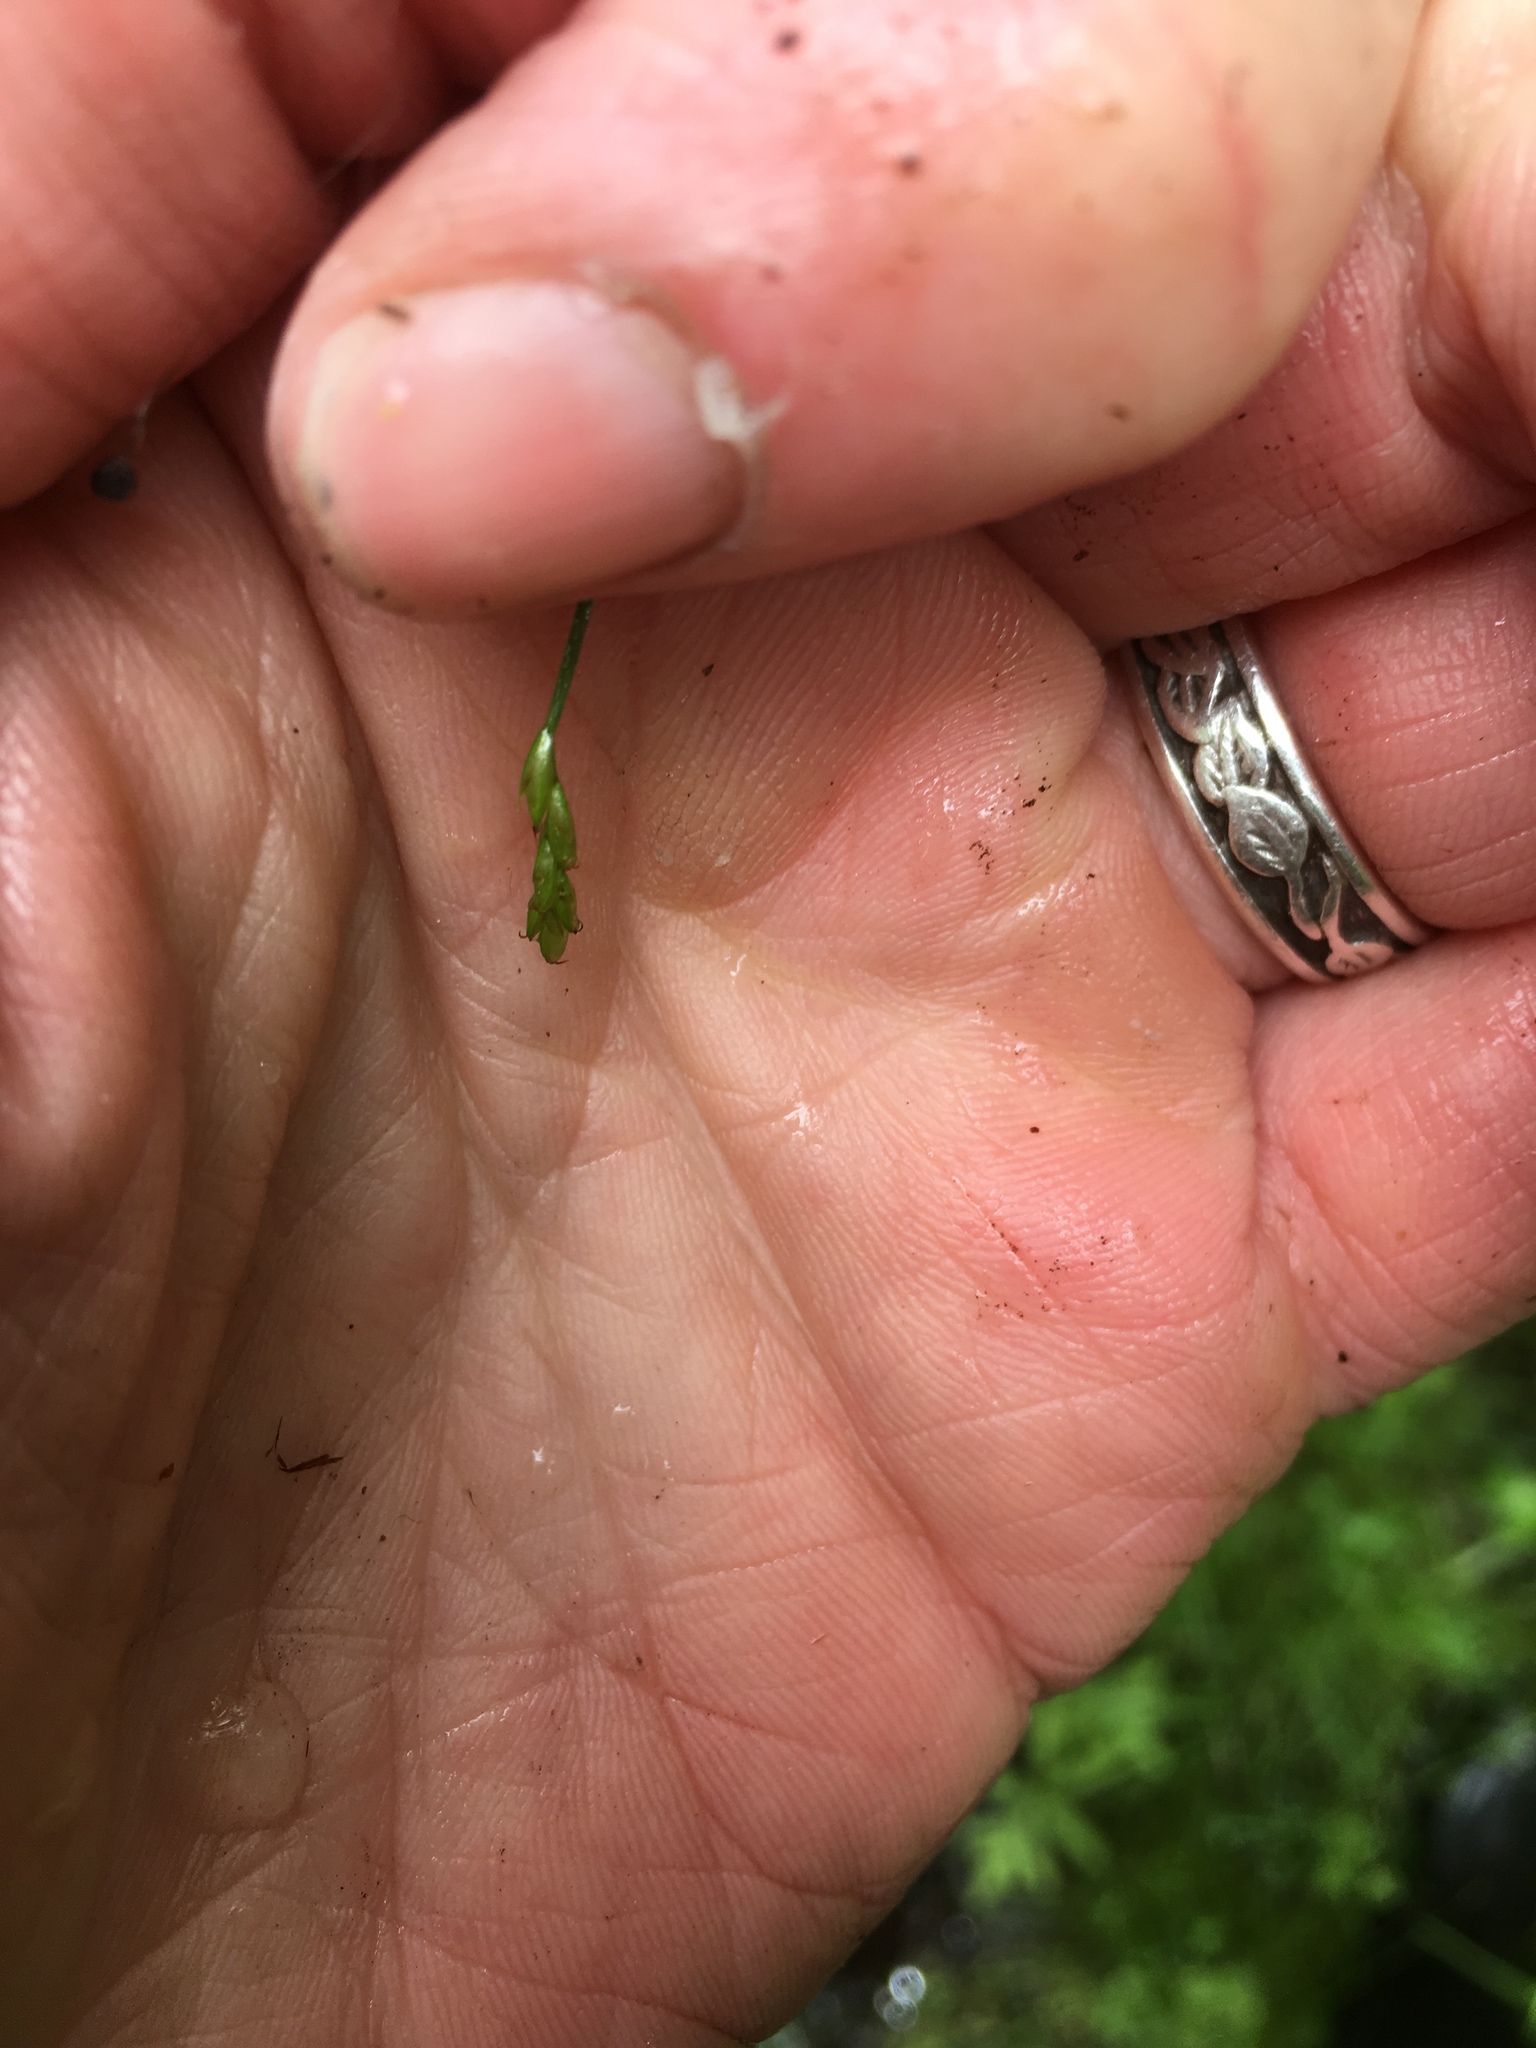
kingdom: Plantae
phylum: Tracheophyta
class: Liliopsida
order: Poales
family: Cyperaceae
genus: Carex
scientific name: Carex leptalea
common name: Bristly-stalked sedge
